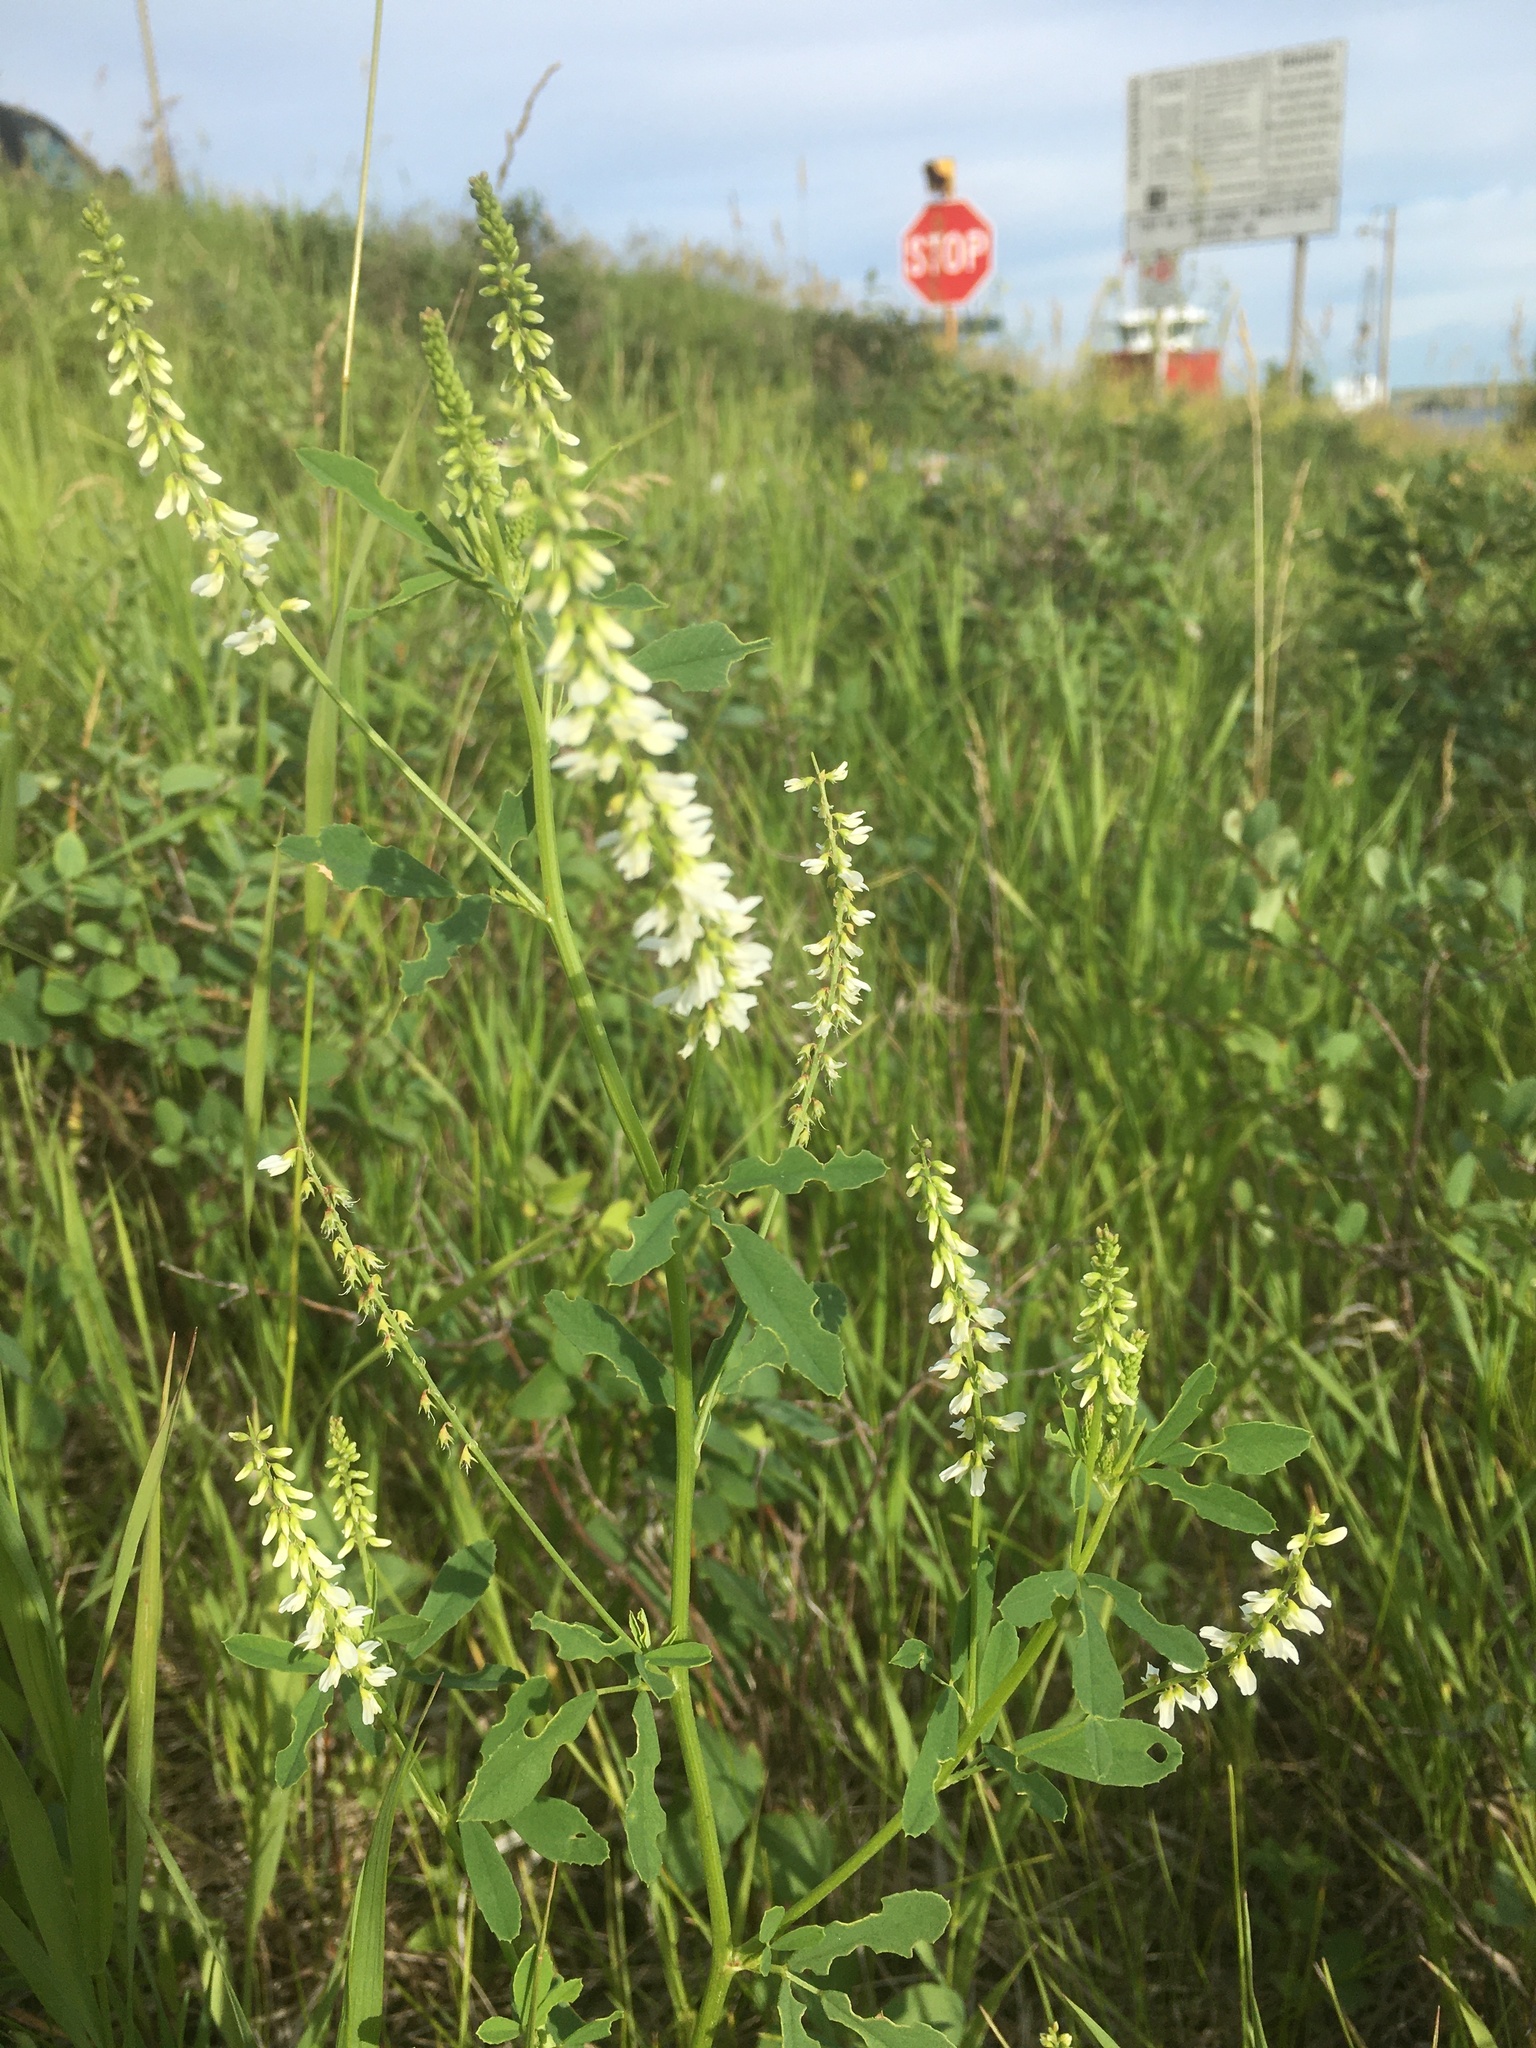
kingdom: Plantae
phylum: Tracheophyta
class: Magnoliopsida
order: Fabales
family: Fabaceae
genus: Melilotus
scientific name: Melilotus albus
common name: White melilot
